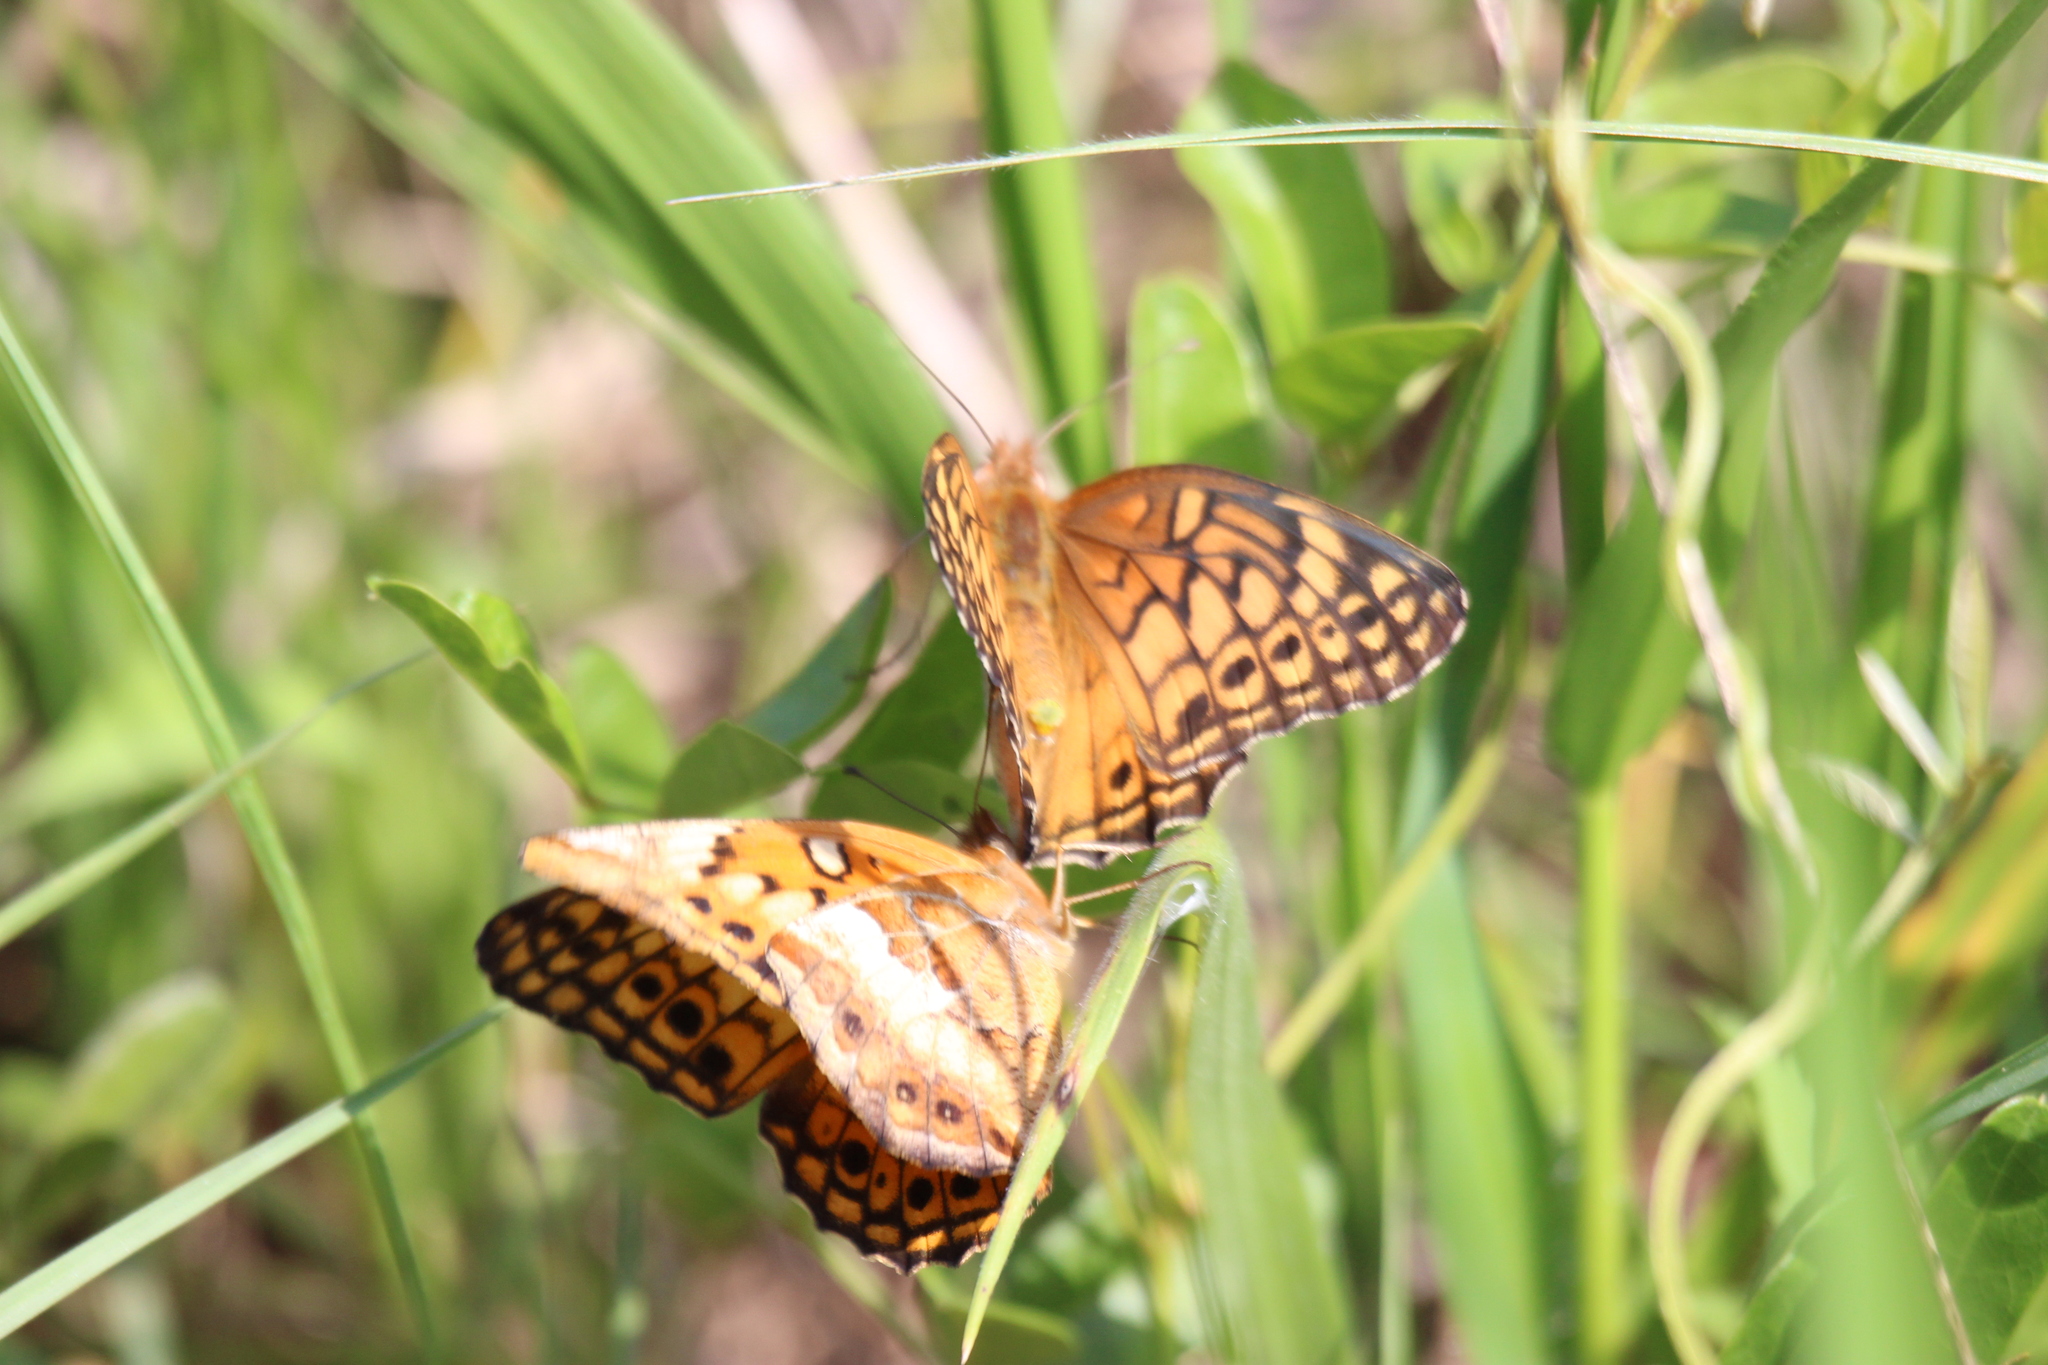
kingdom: Animalia
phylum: Arthropoda
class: Insecta
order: Lepidoptera
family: Nymphalidae
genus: Euptoieta
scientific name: Euptoieta claudia
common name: Variegated fritillary
